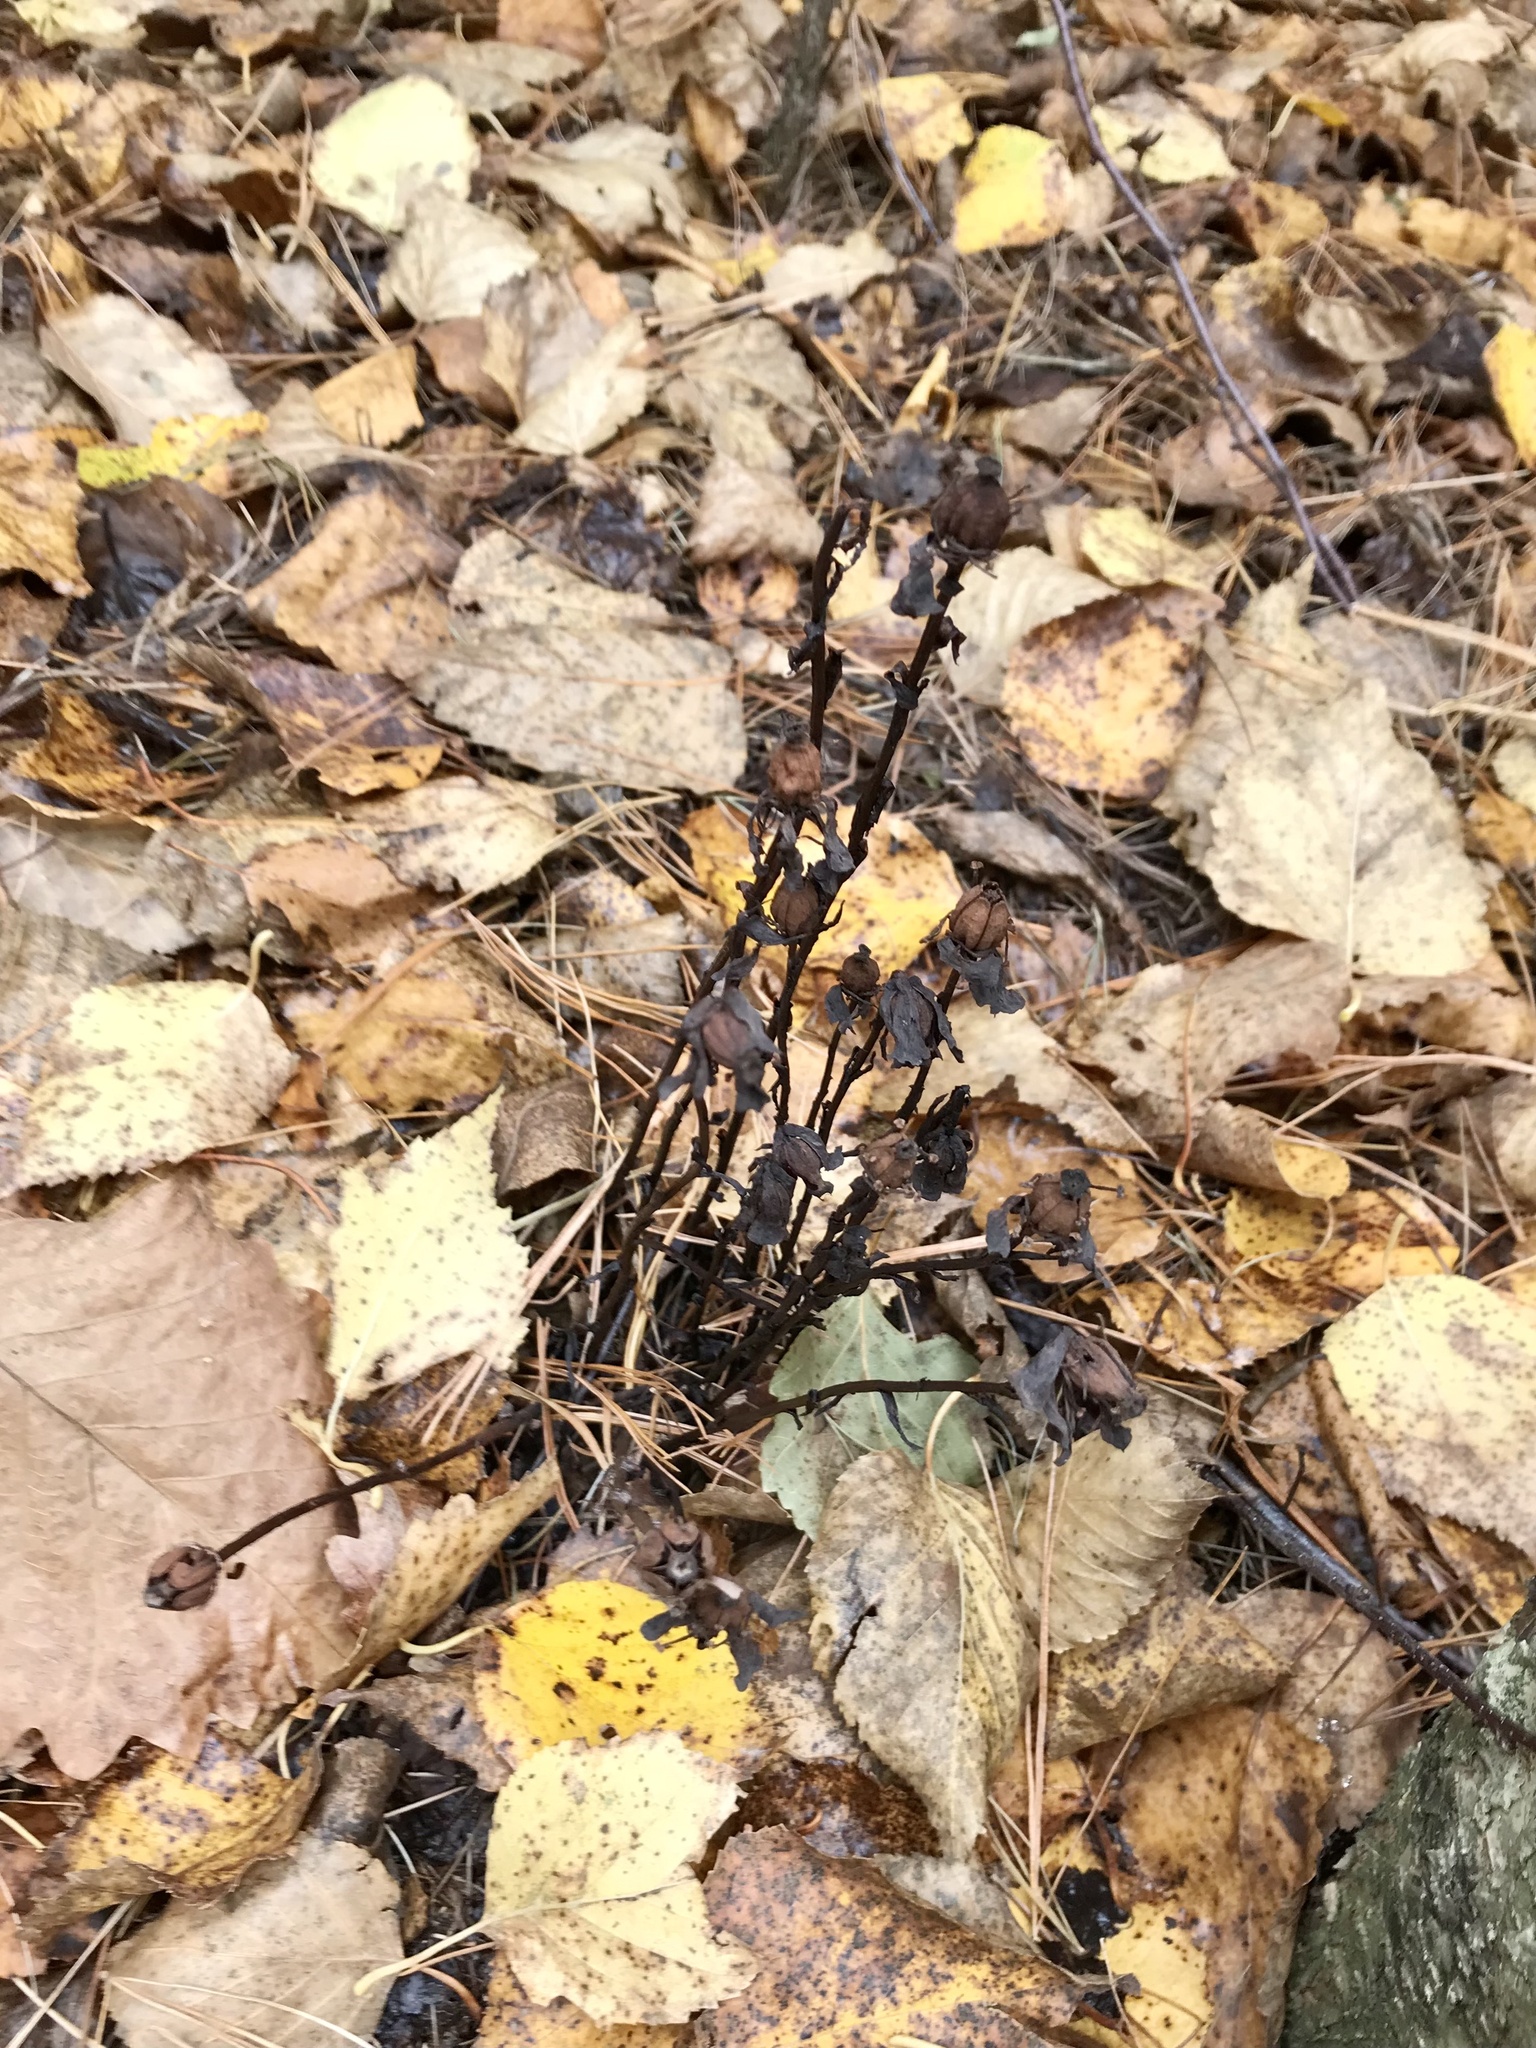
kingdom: Plantae
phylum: Tracheophyta
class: Magnoliopsida
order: Ericales
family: Ericaceae
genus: Monotropa
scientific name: Monotropa uniflora
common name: Convulsion root
